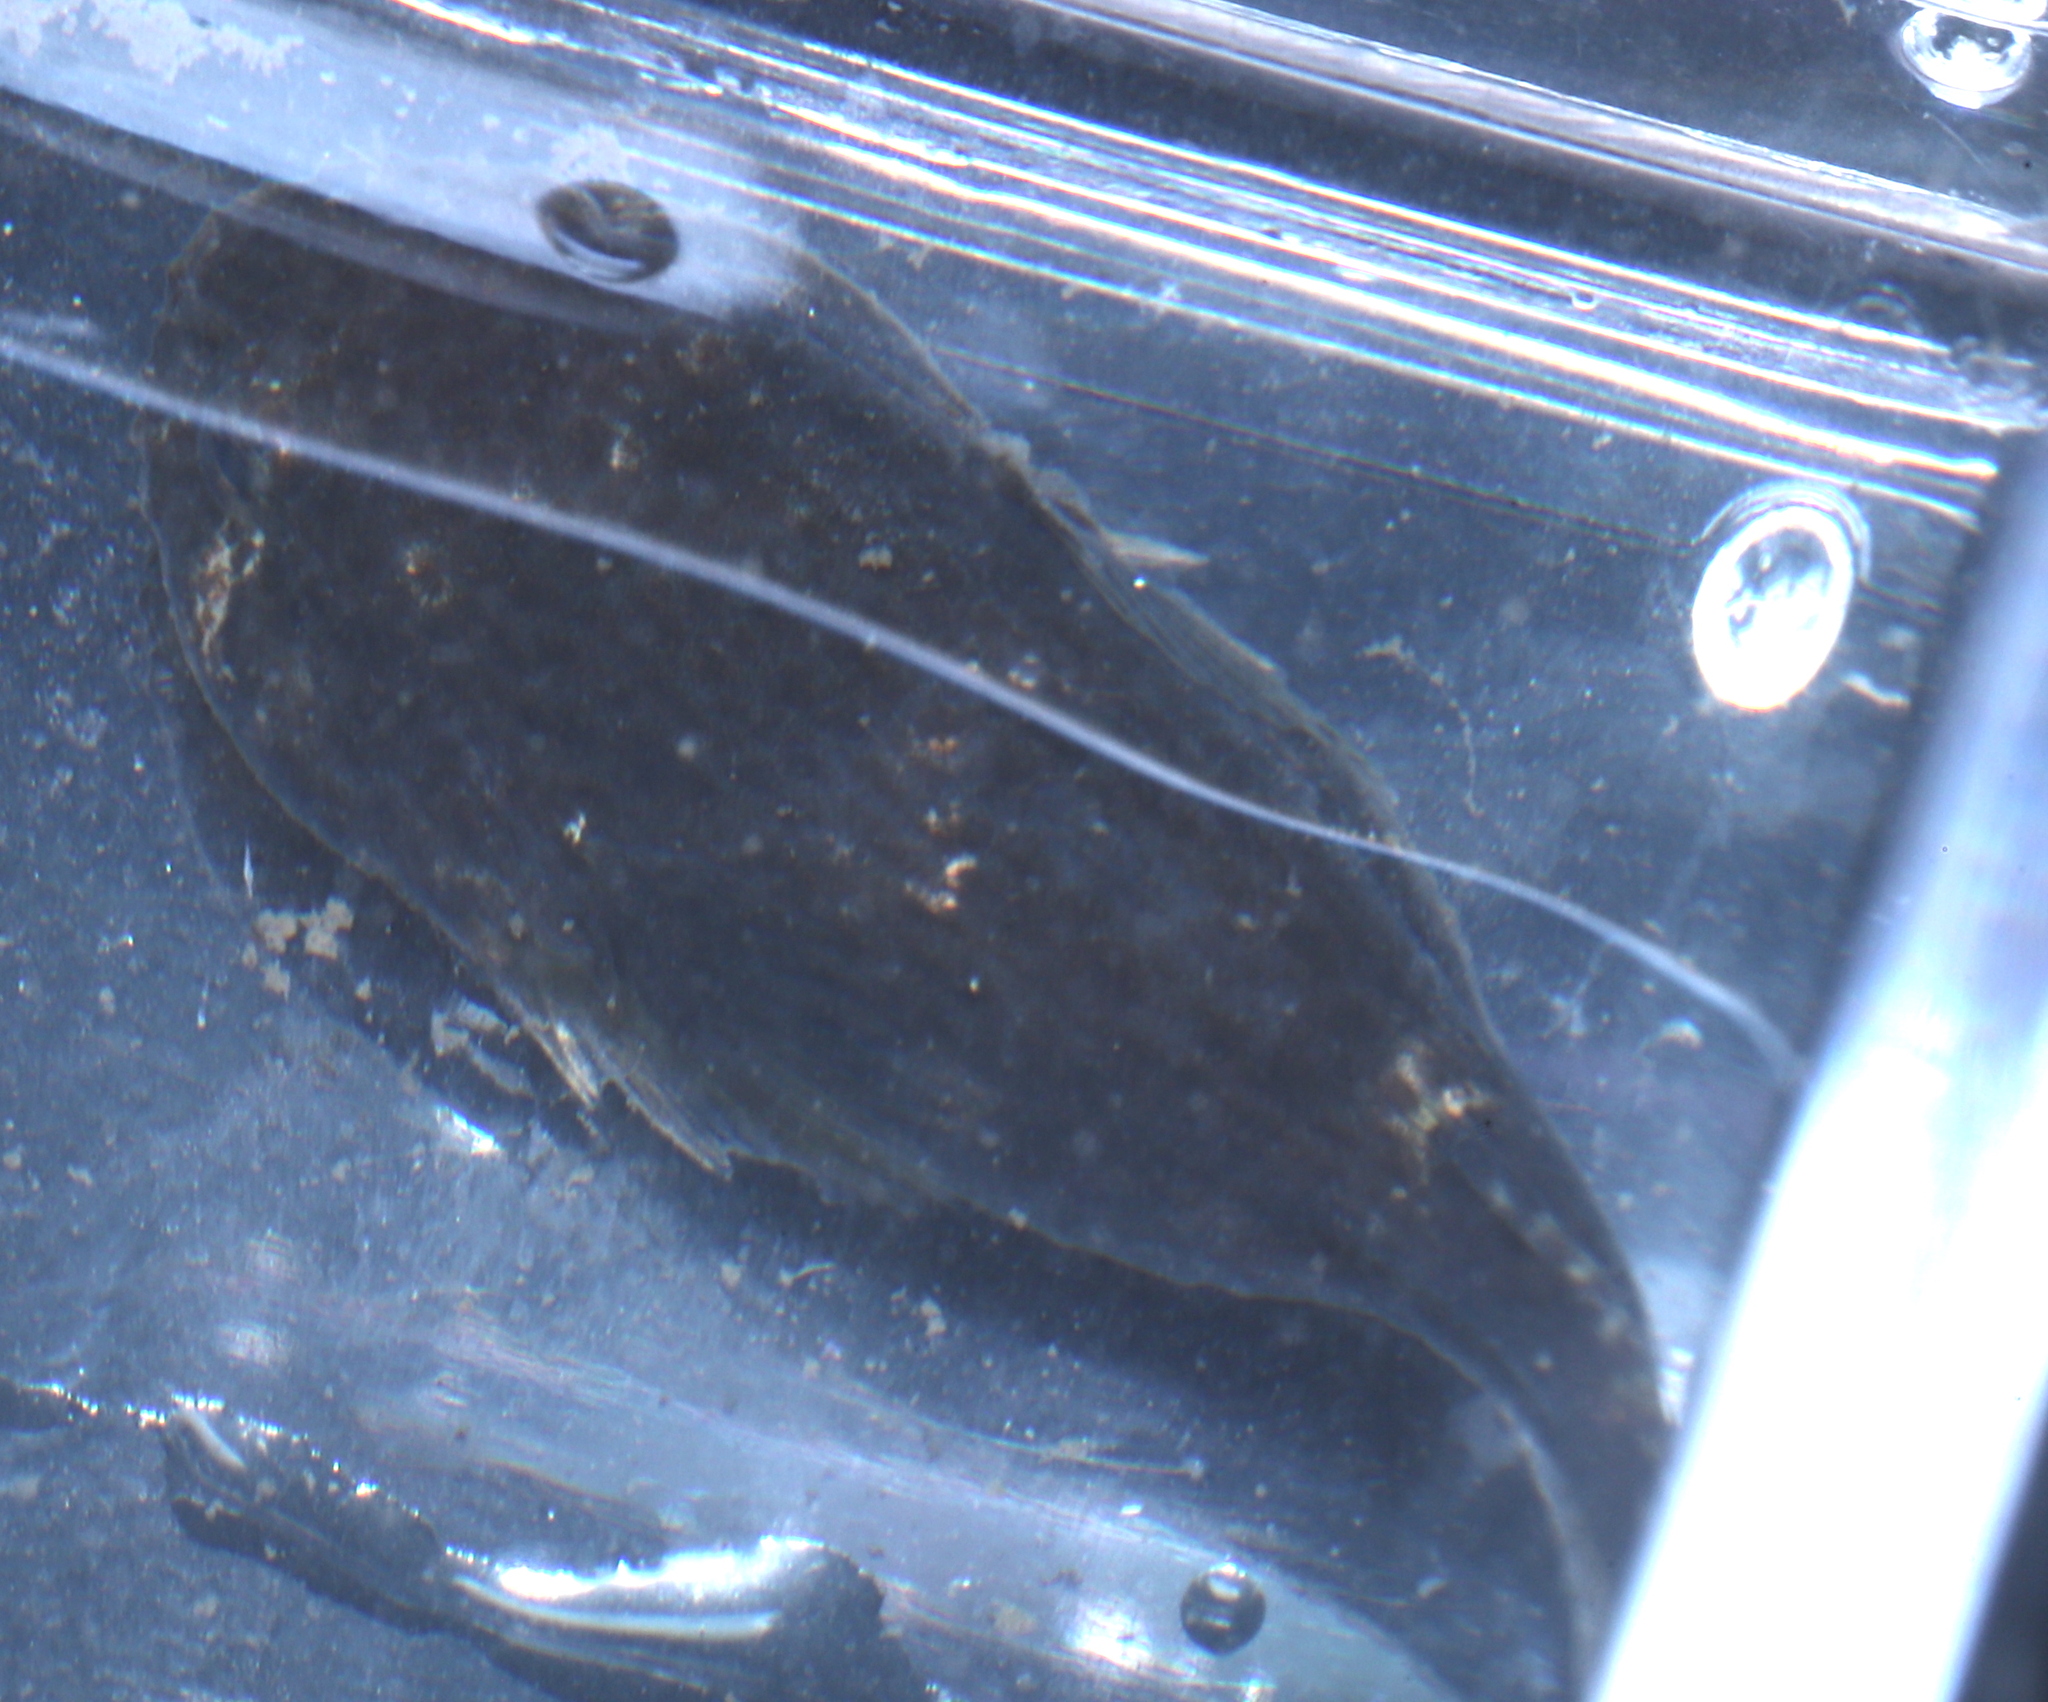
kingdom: Animalia
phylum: Chordata
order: Gobiesociformes
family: Gobiesocidae
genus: Gobiesox
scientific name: Gobiesox strumosus
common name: Skilletfish
